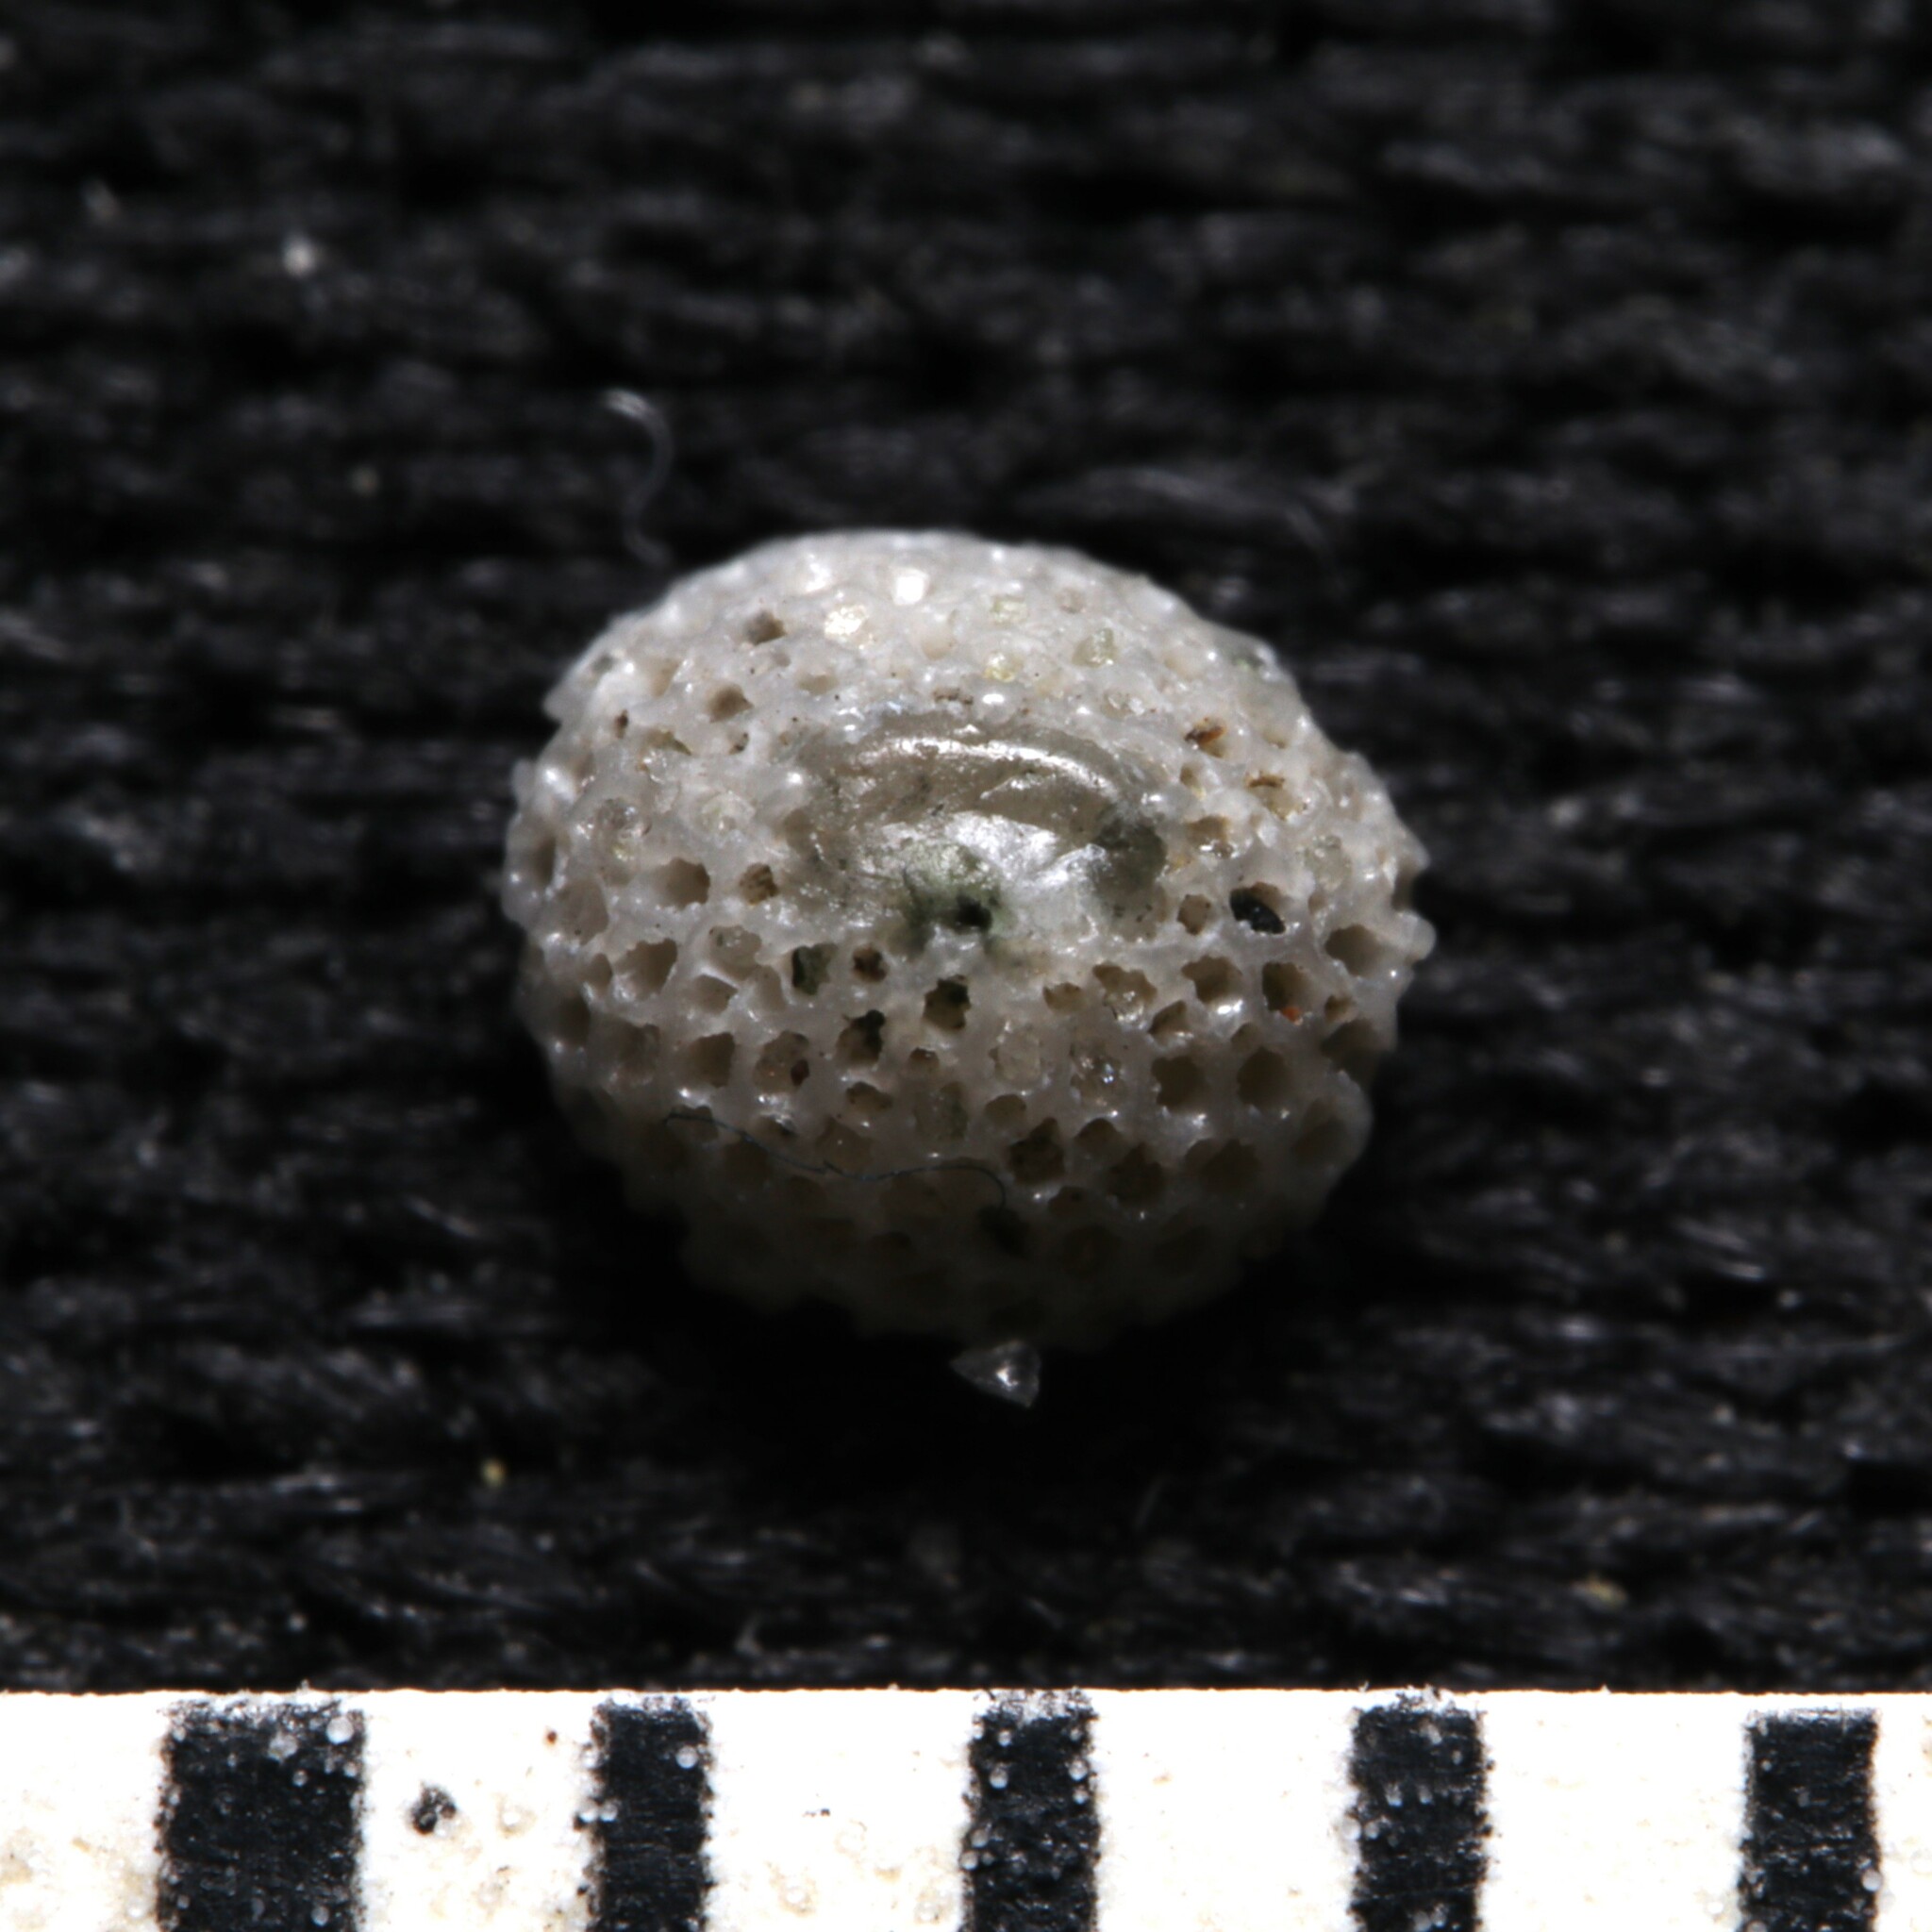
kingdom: Animalia
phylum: Bryozoa
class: Gymnolaemata
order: Cheilostomatida
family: Cupuladriidae
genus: Discoporella
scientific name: Discoporella umbellata
